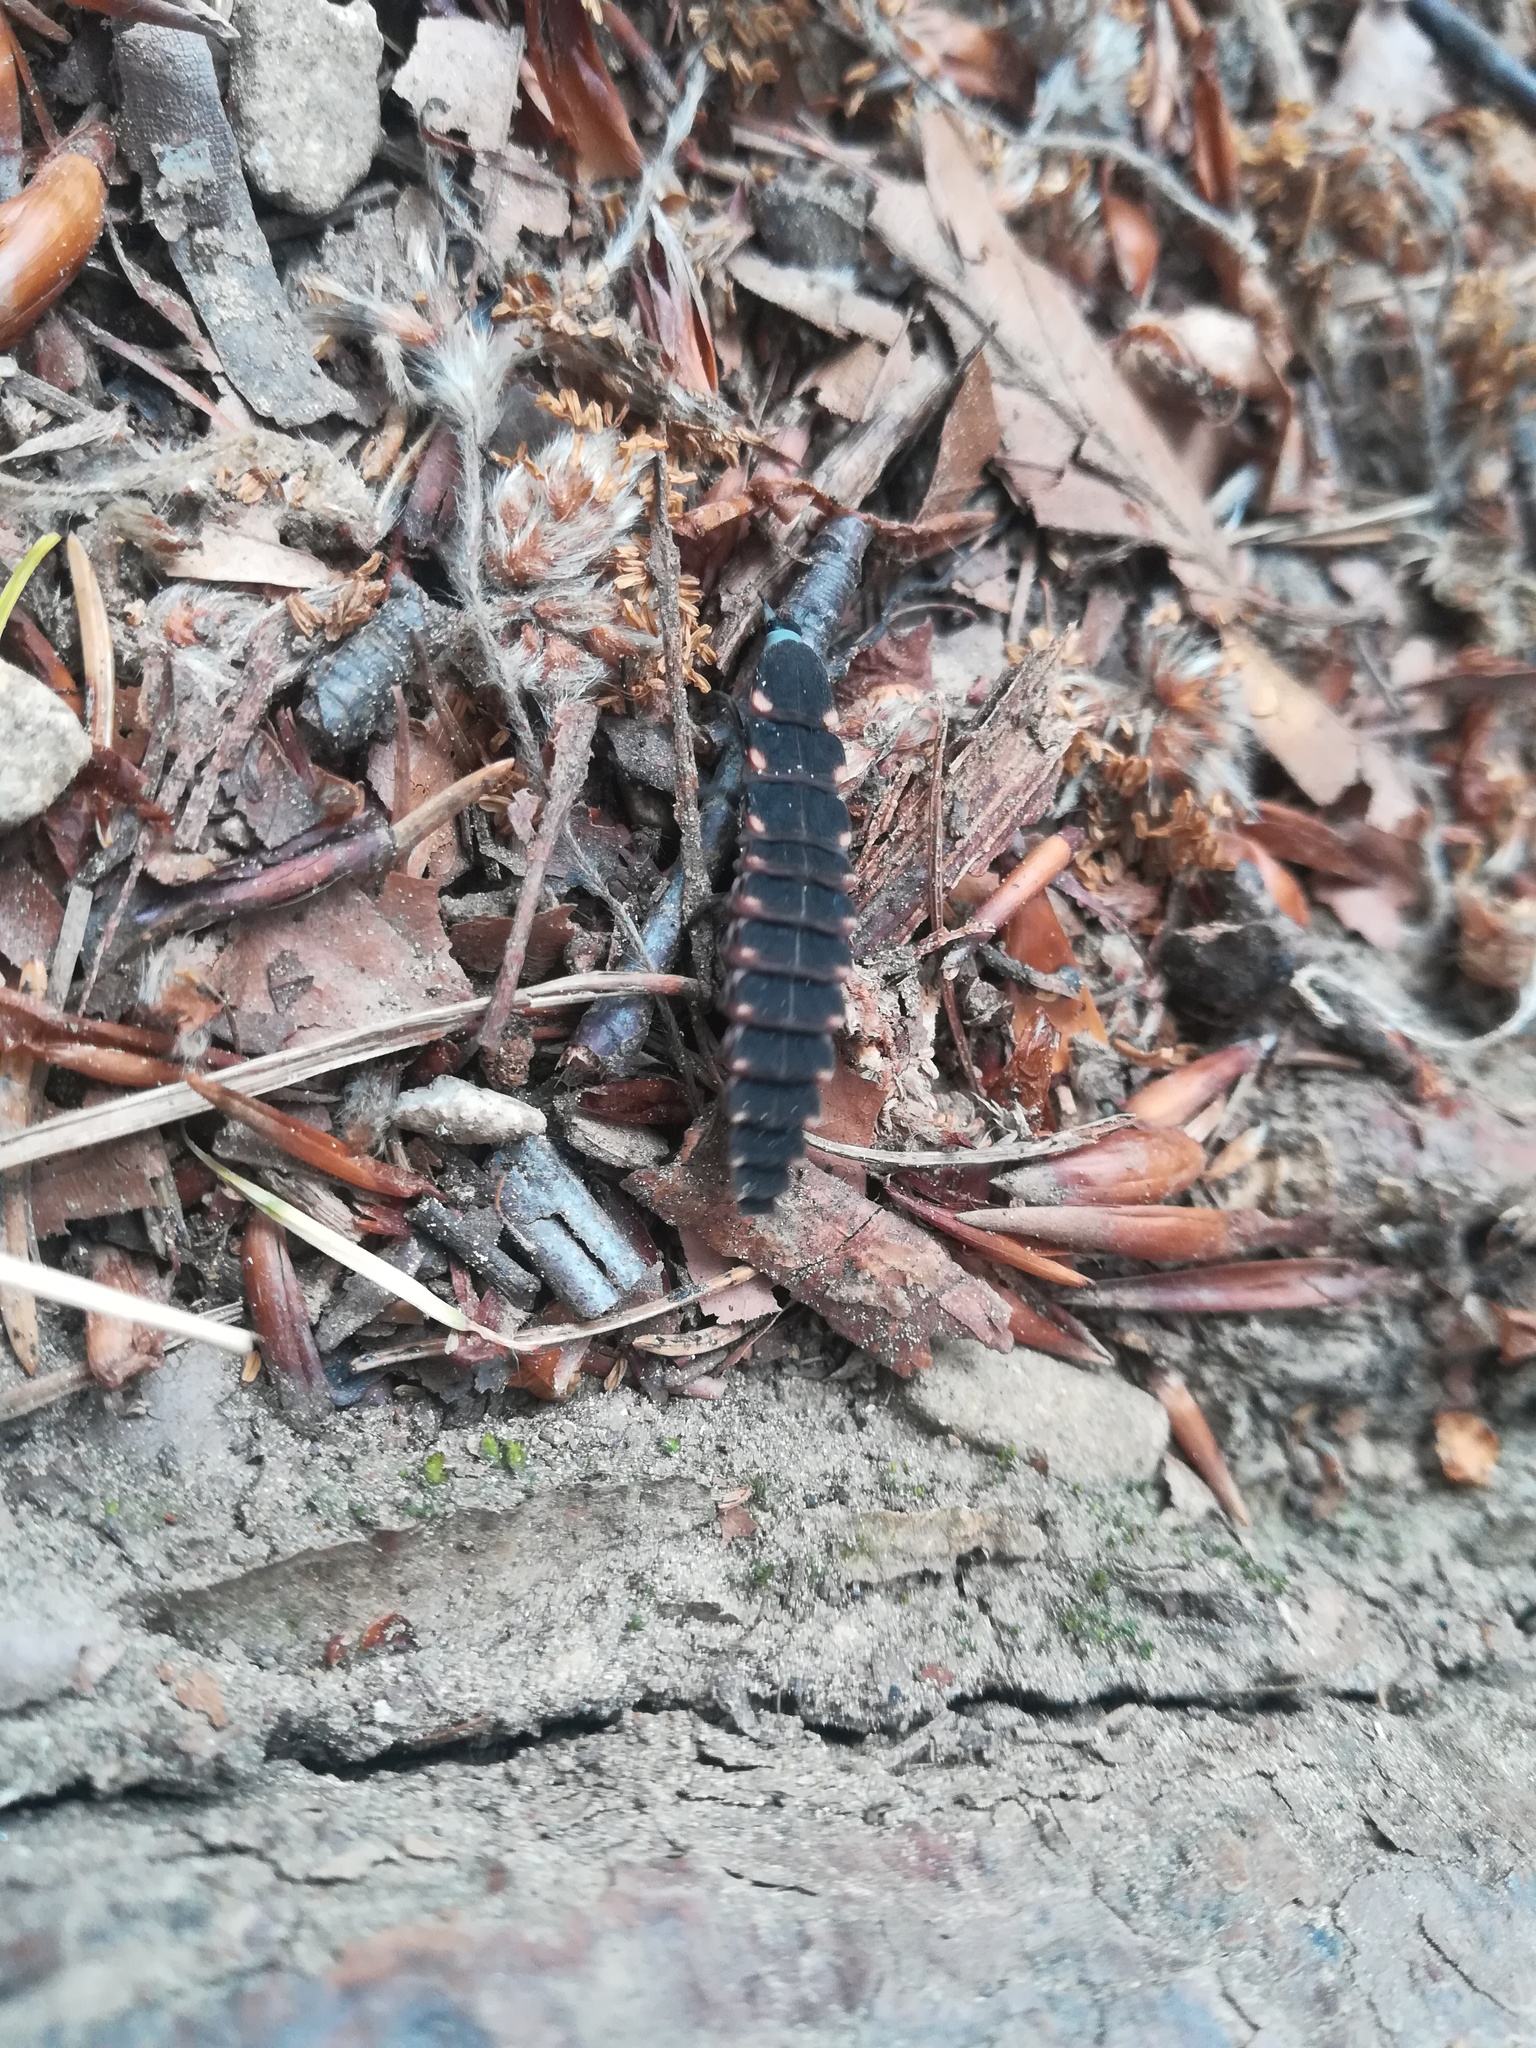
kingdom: Animalia
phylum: Arthropoda
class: Insecta
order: Coleoptera
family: Lampyridae
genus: Lampyris
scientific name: Lampyris noctiluca
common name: Glow-worm
